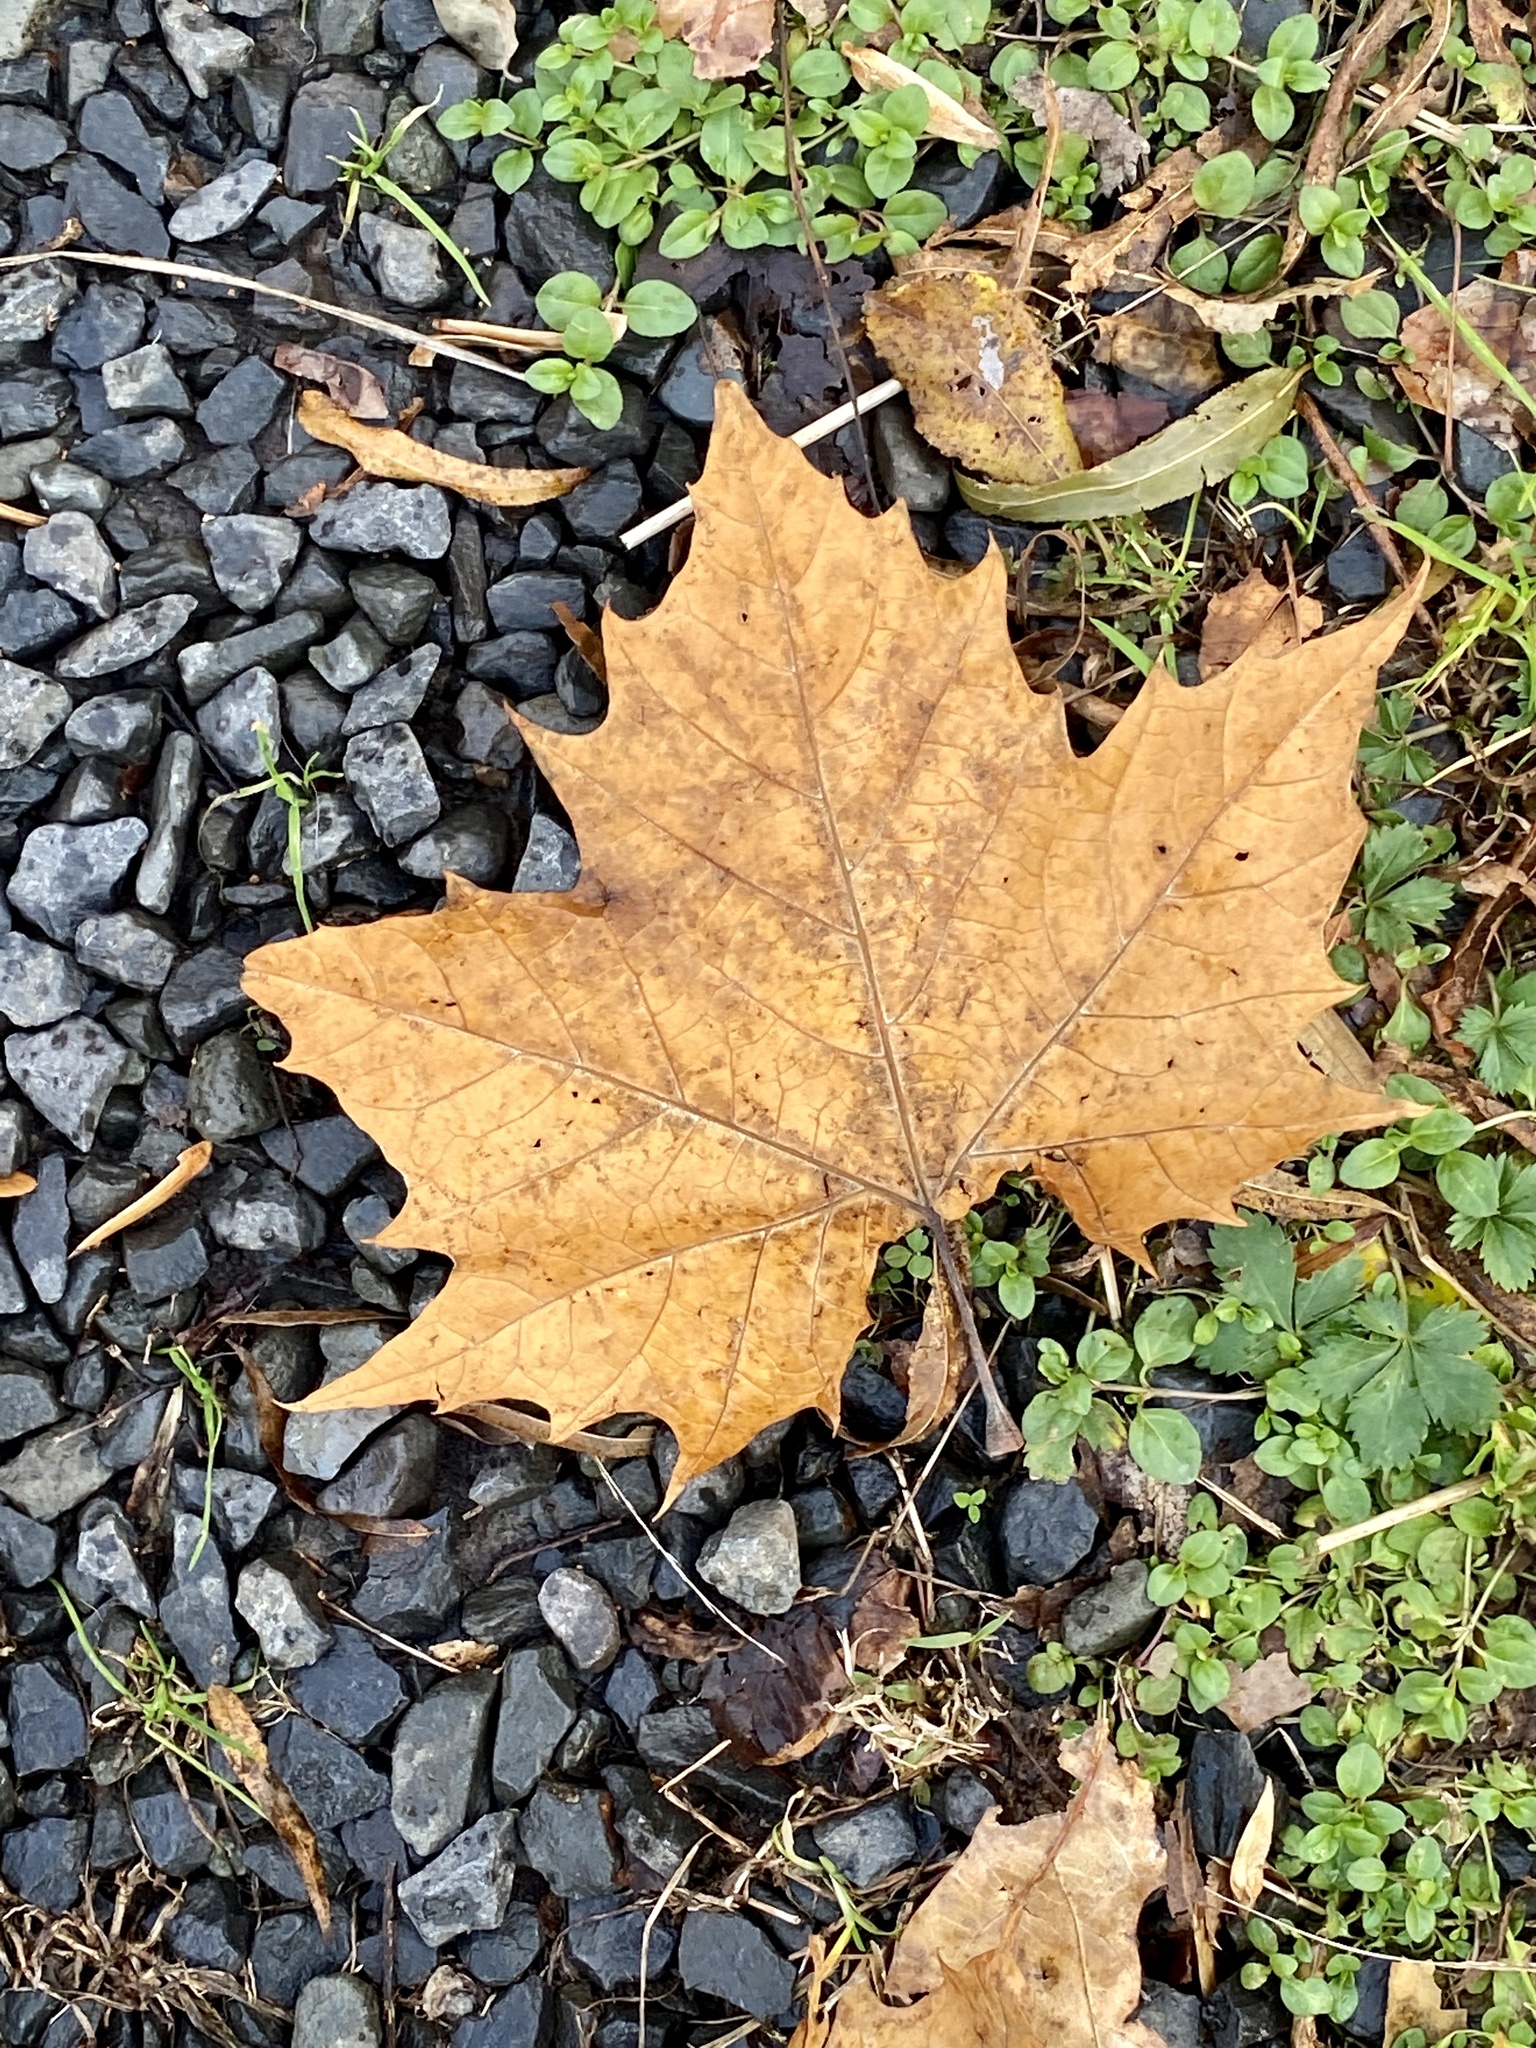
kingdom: Plantae
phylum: Tracheophyta
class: Magnoliopsida
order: Proteales
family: Platanaceae
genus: Platanus
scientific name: Platanus occidentalis
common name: American sycamore
